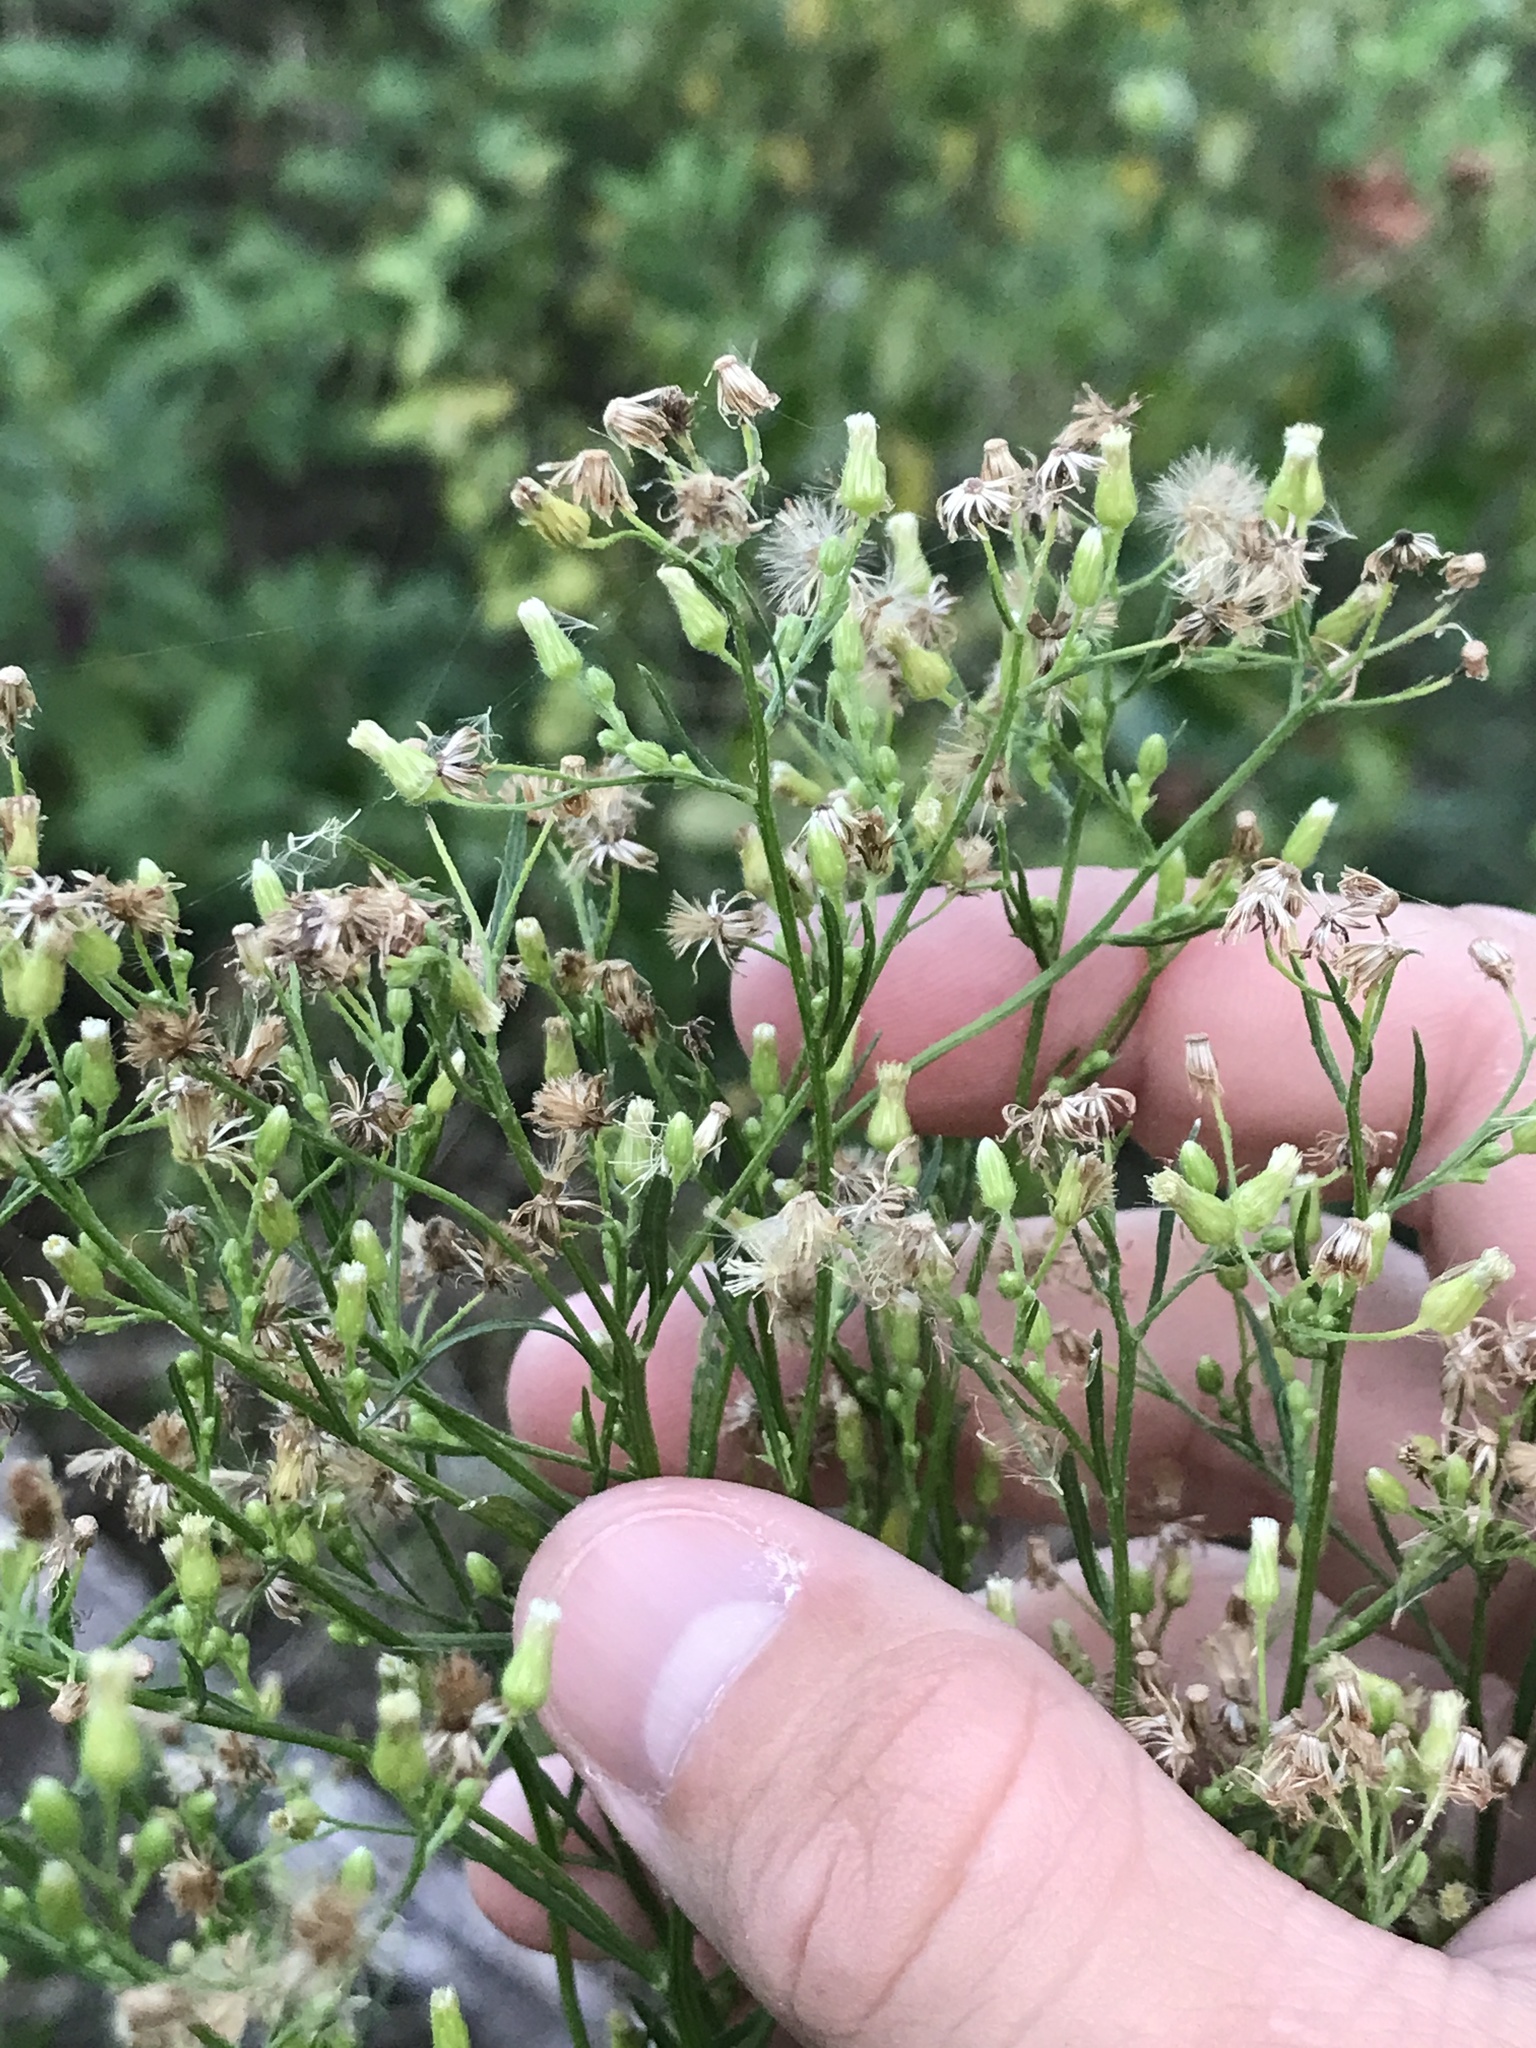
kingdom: Plantae
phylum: Tracheophyta
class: Magnoliopsida
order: Asterales
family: Asteraceae
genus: Erigeron
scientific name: Erigeron canadensis
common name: Canadian fleabane
